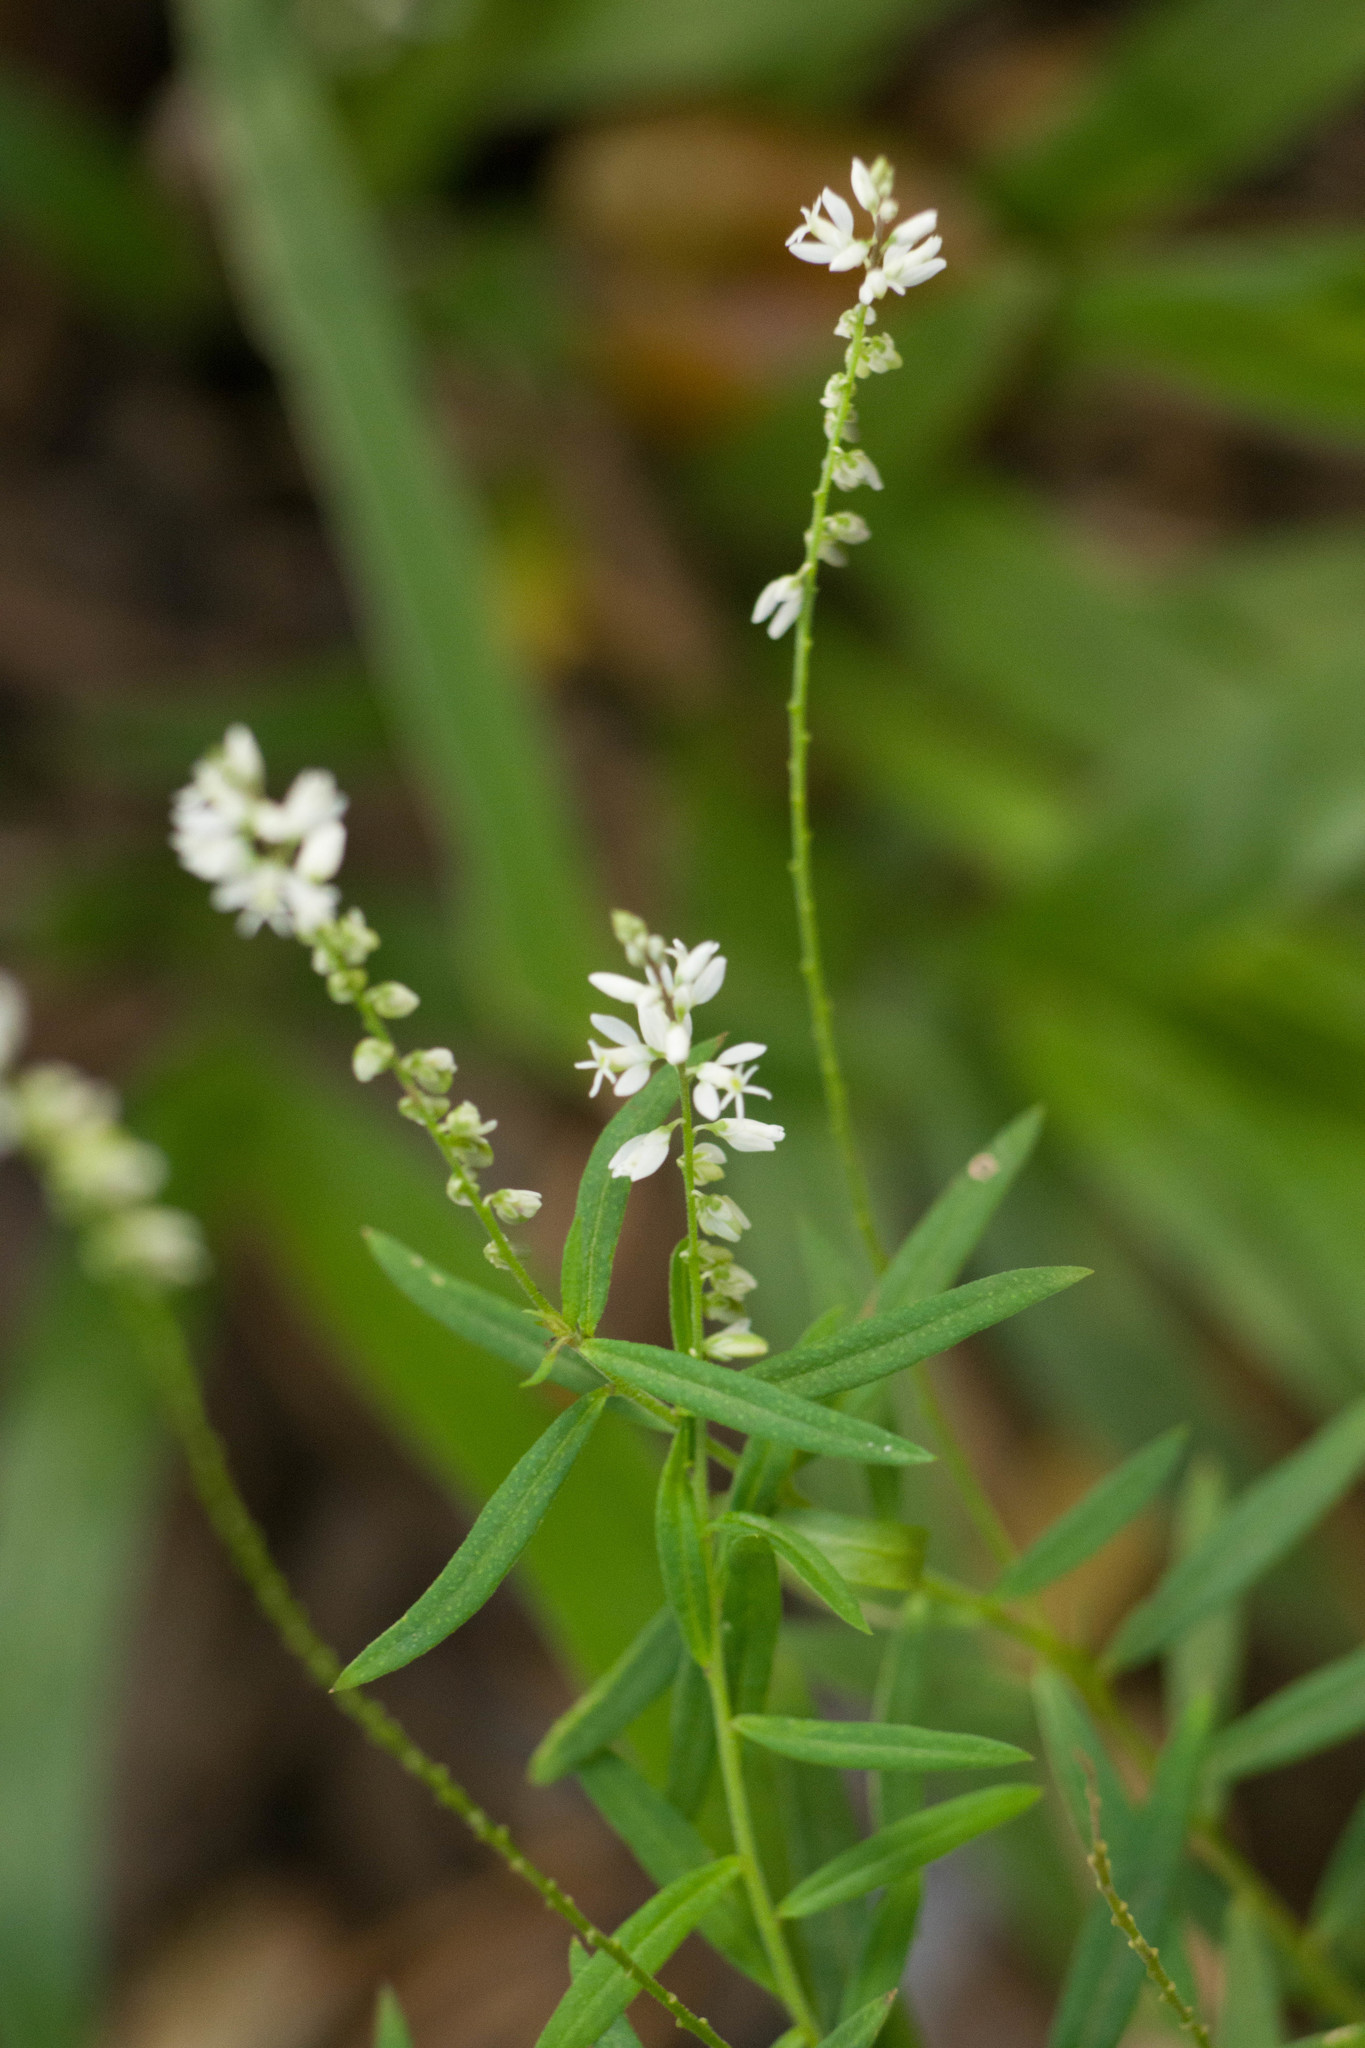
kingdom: Plantae
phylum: Tracheophyta
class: Magnoliopsida
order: Fabales
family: Polygalaceae
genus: Polygala
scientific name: Polygala paniculata
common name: Orosne
